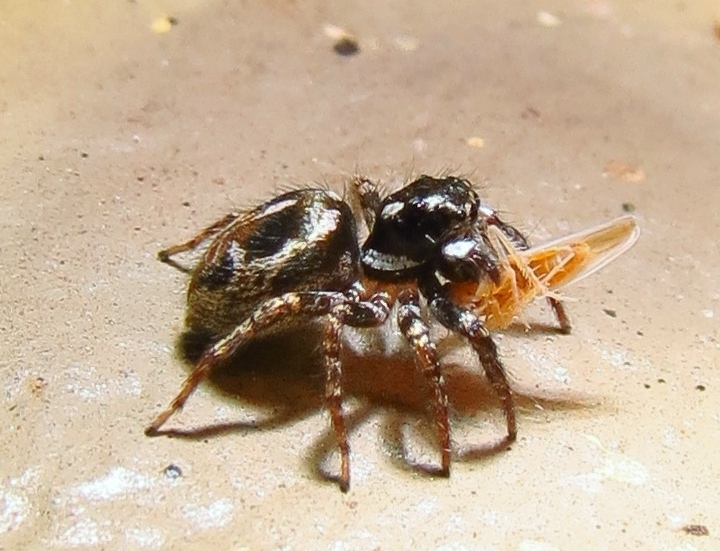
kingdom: Animalia
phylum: Arthropoda
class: Arachnida
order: Araneae
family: Salticidae
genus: Anasaitis
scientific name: Anasaitis canosa
